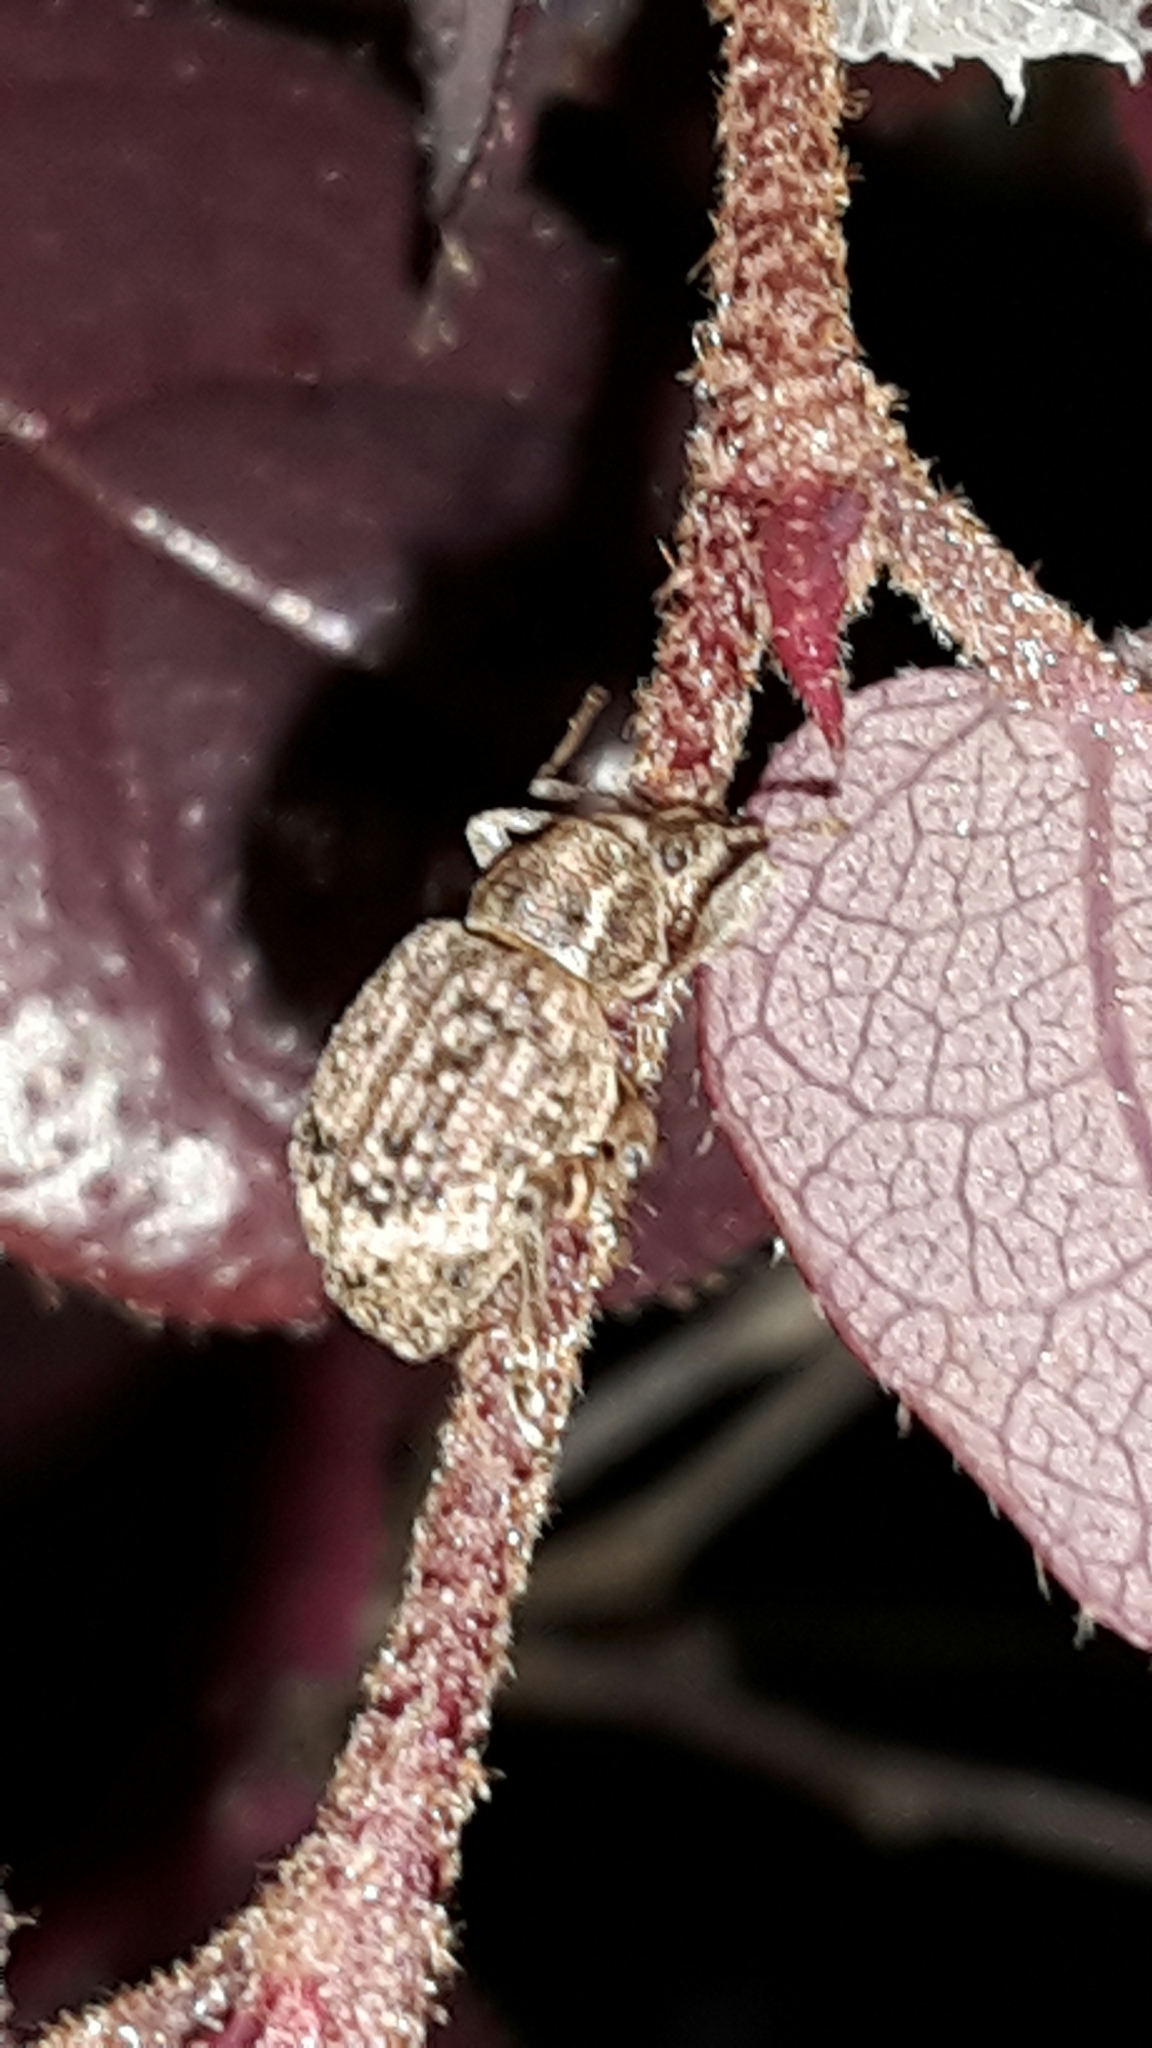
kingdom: Animalia
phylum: Arthropoda
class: Insecta
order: Coleoptera
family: Curculionidae
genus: Phlyctinus
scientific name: Phlyctinus callosus
